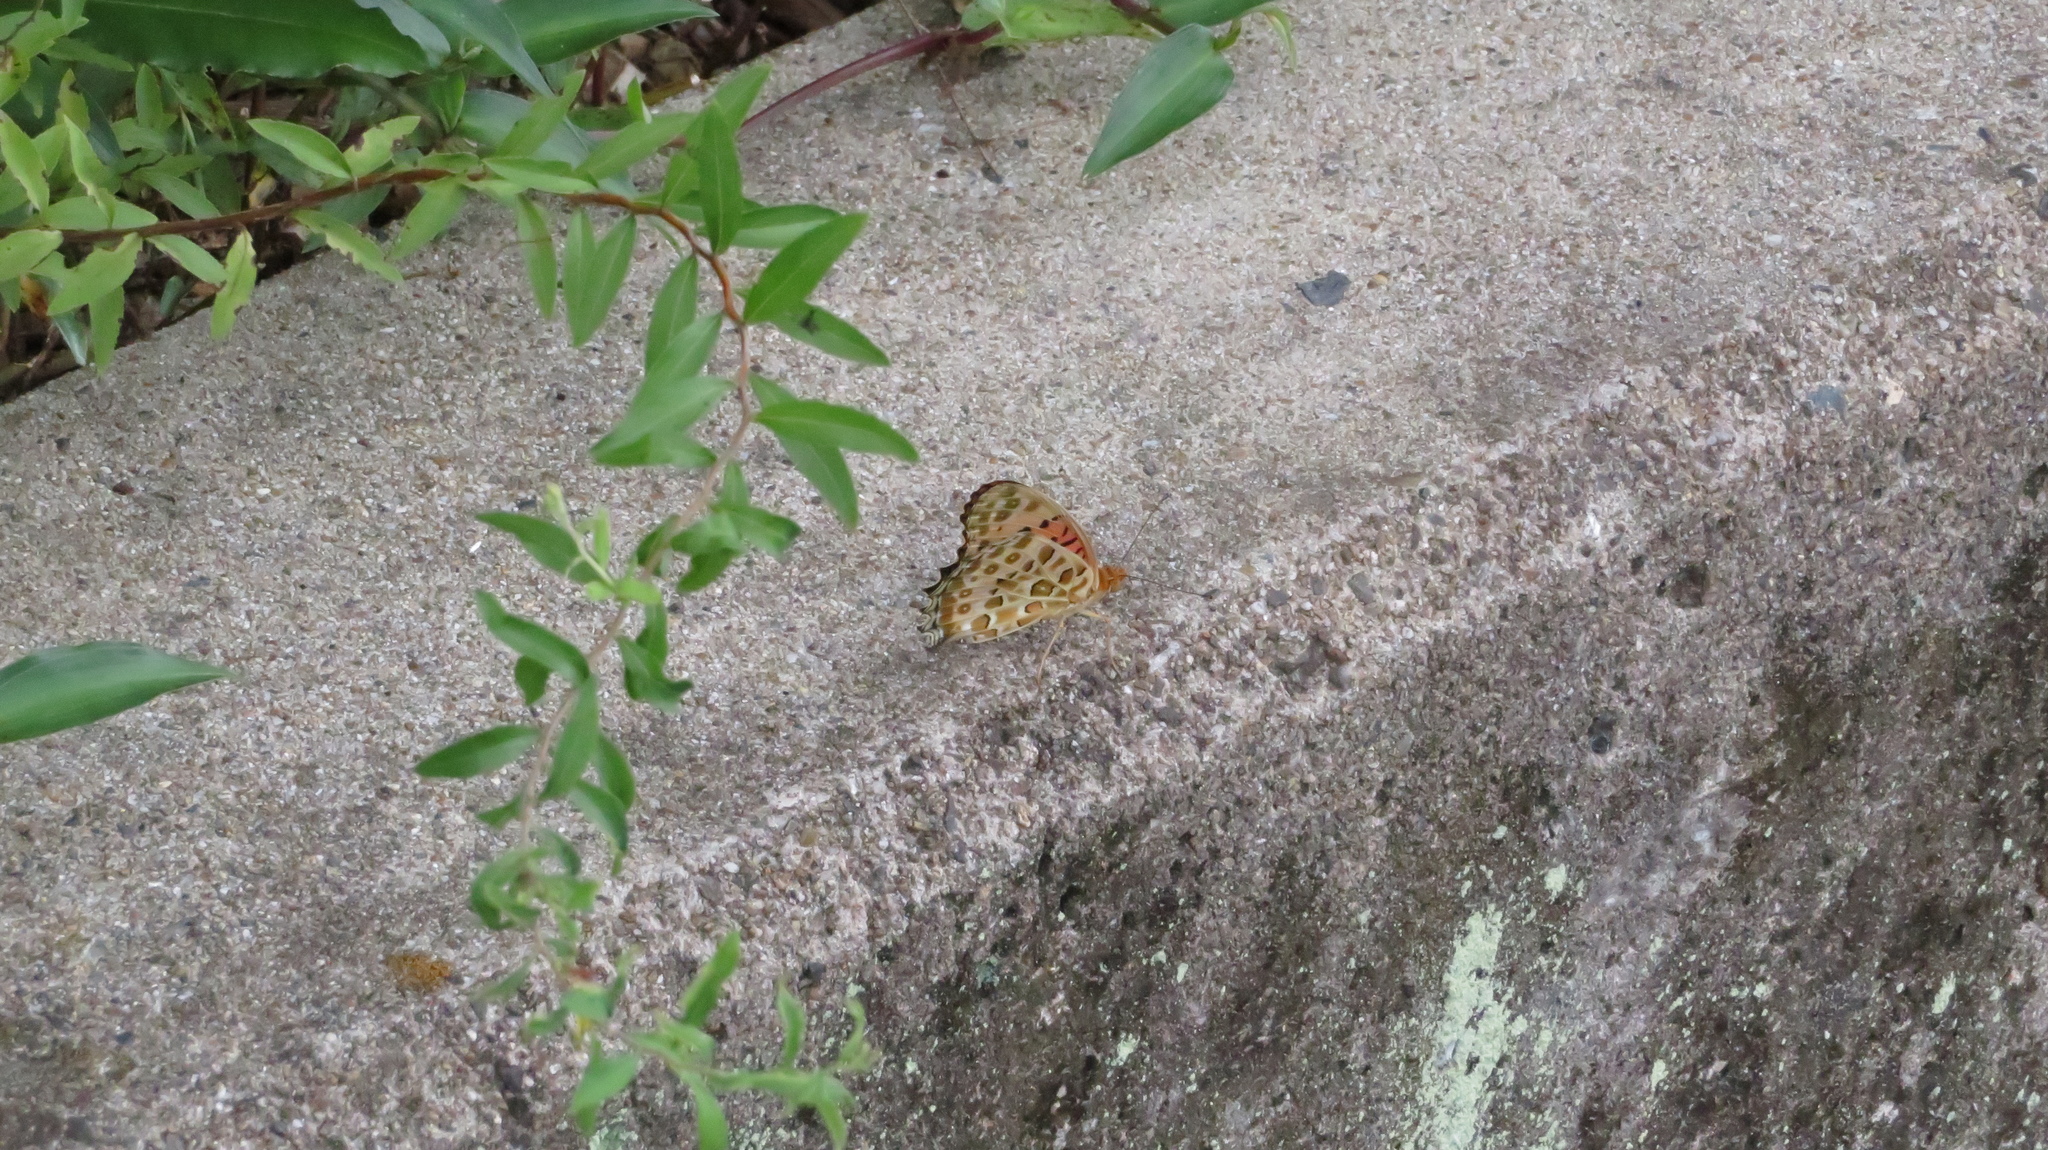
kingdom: Animalia
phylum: Arthropoda
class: Insecta
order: Lepidoptera
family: Nymphalidae
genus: Argynnis
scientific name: Argynnis hyperbius
